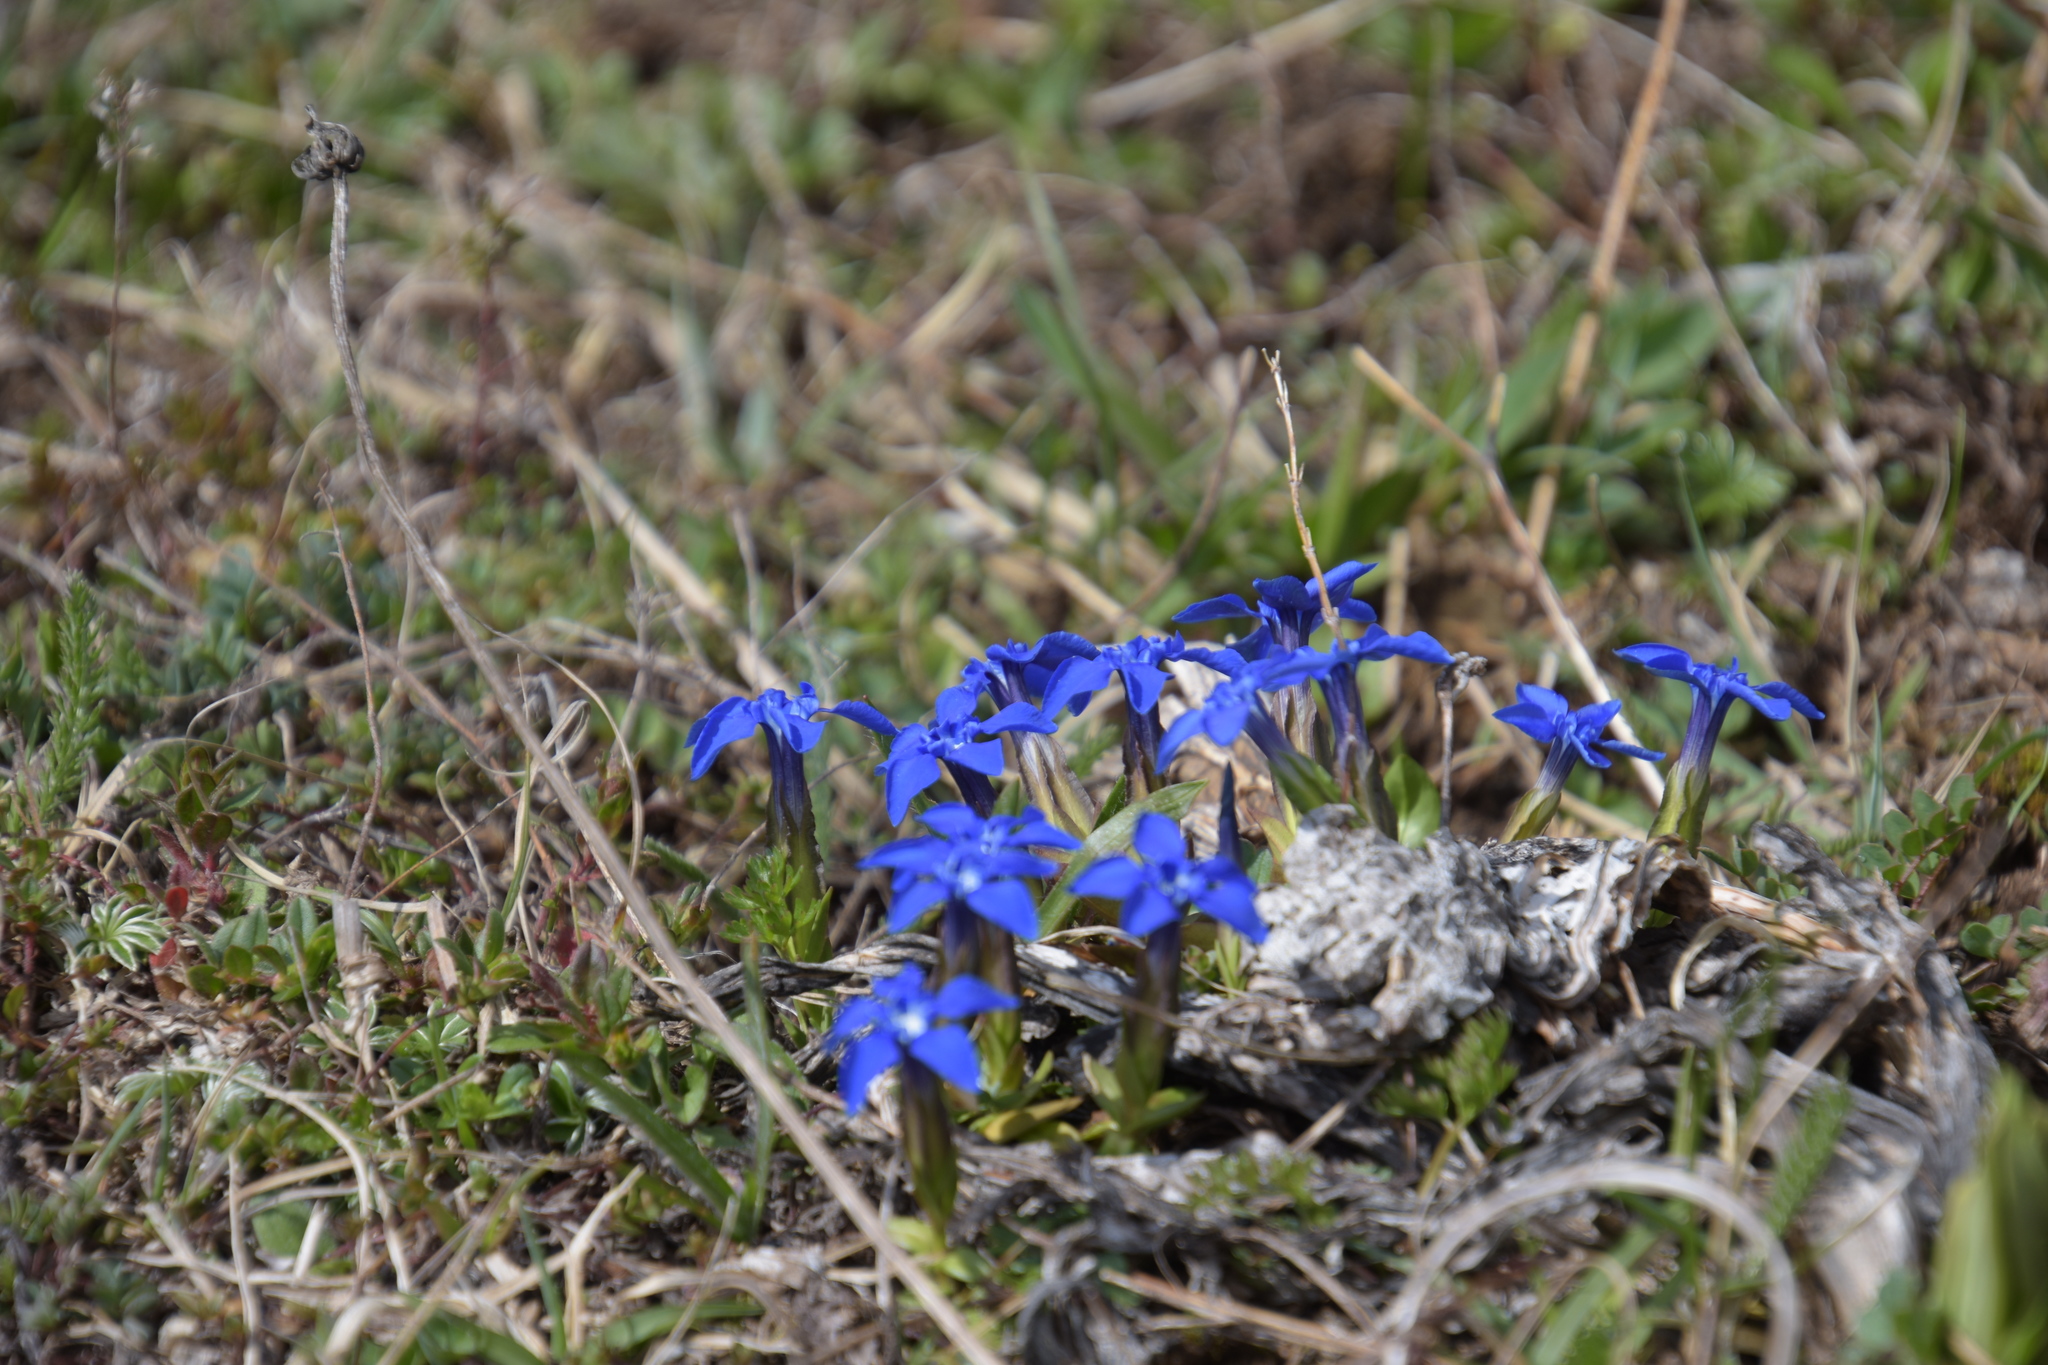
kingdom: Plantae
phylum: Tracheophyta
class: Magnoliopsida
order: Gentianales
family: Gentianaceae
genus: Gentiana
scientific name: Gentiana verna
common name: Spring gentian
